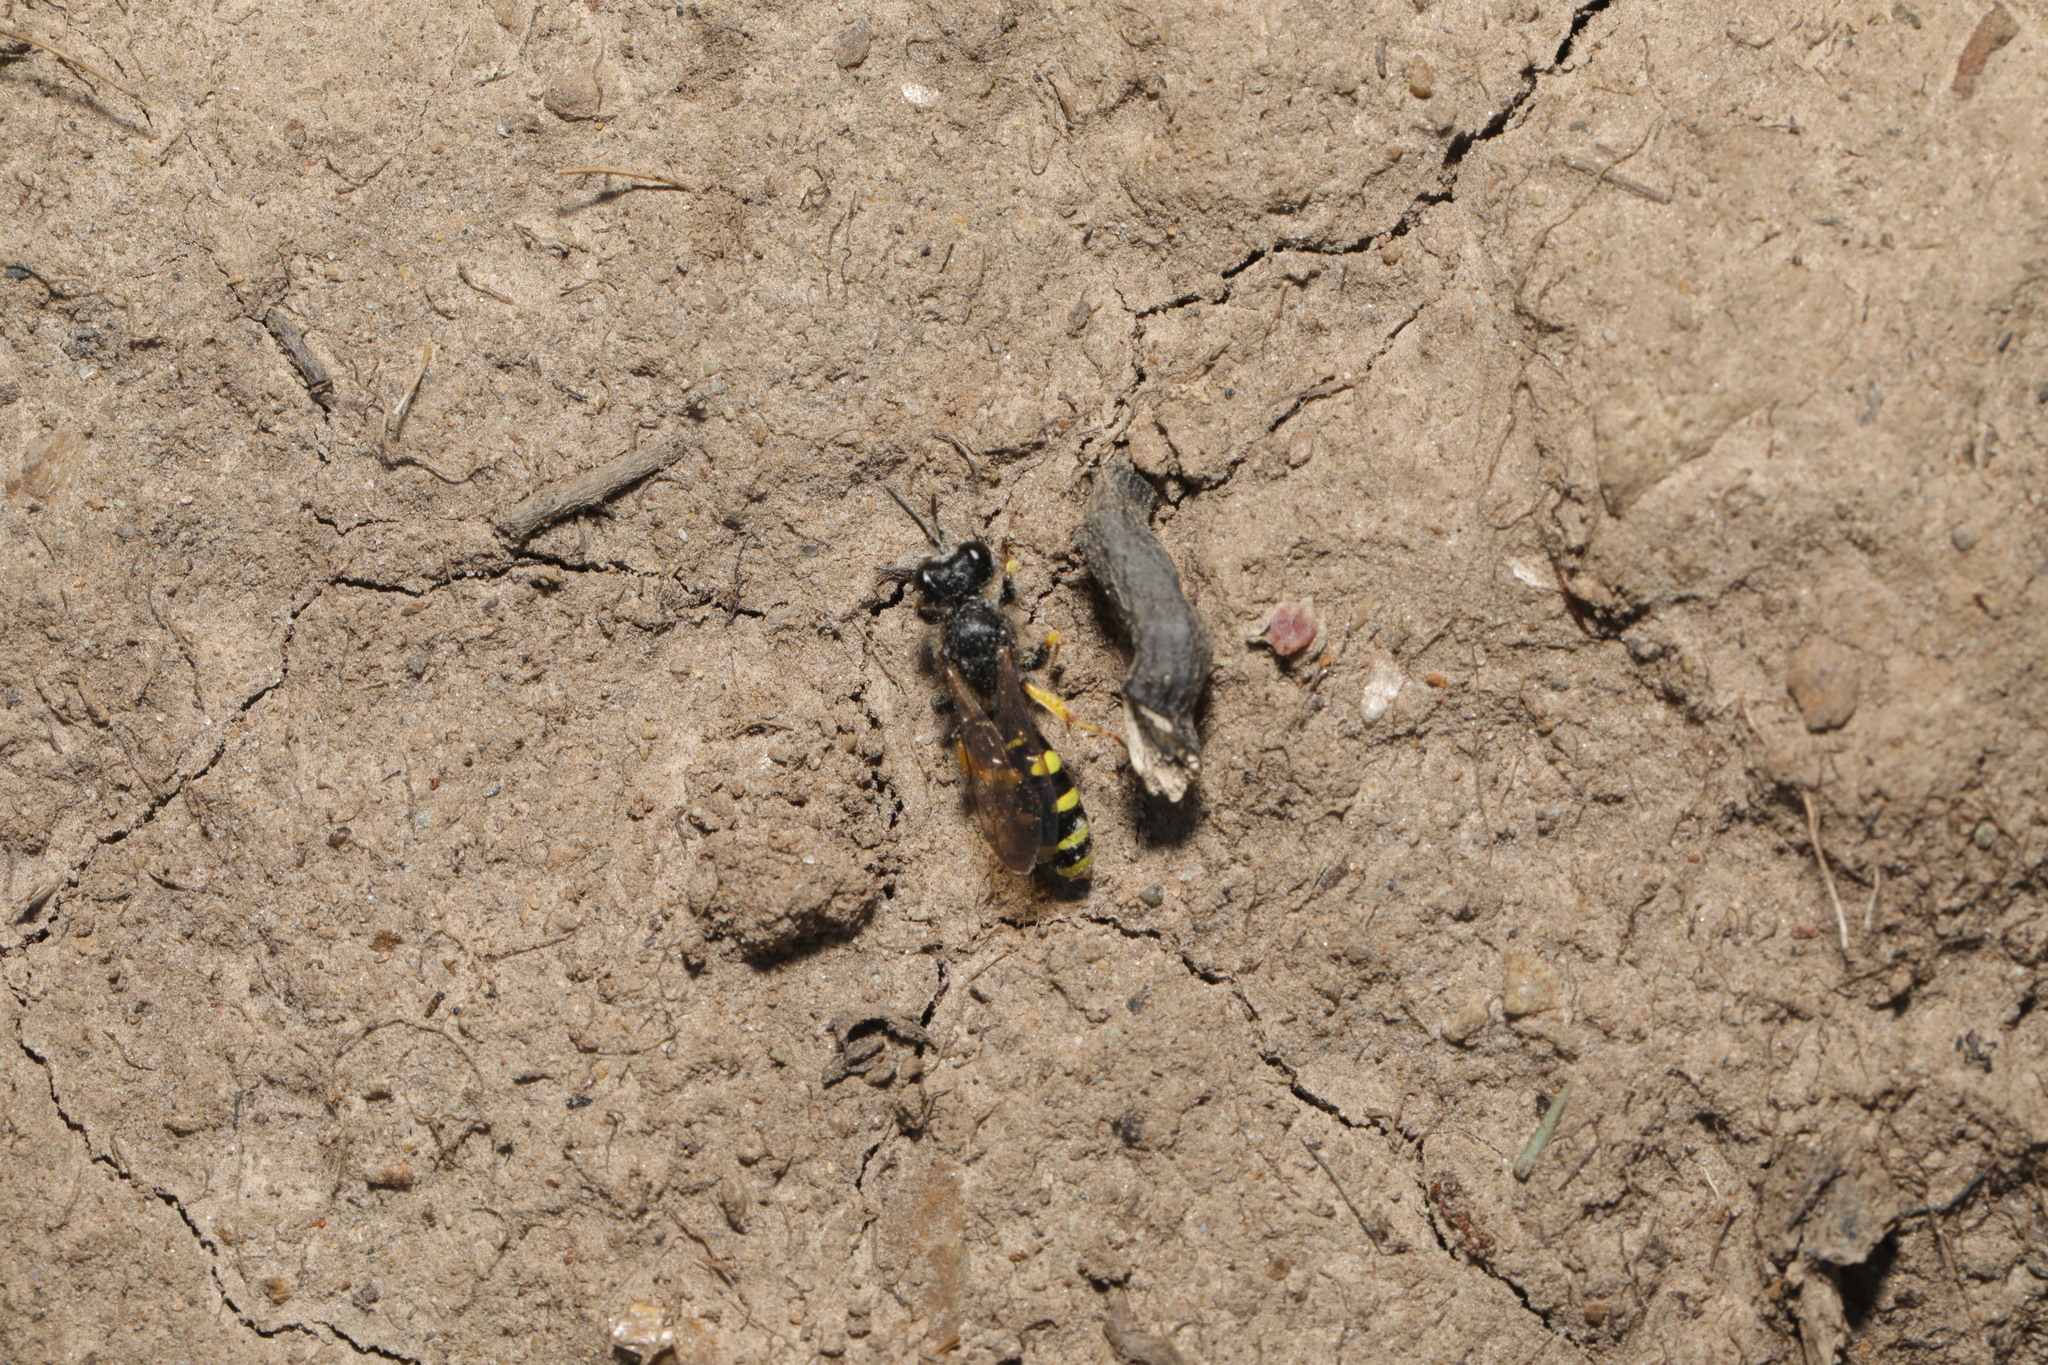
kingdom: Animalia
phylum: Arthropoda
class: Insecta
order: Hymenoptera
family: Crabronidae
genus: Crabro
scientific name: Crabro peltarius
